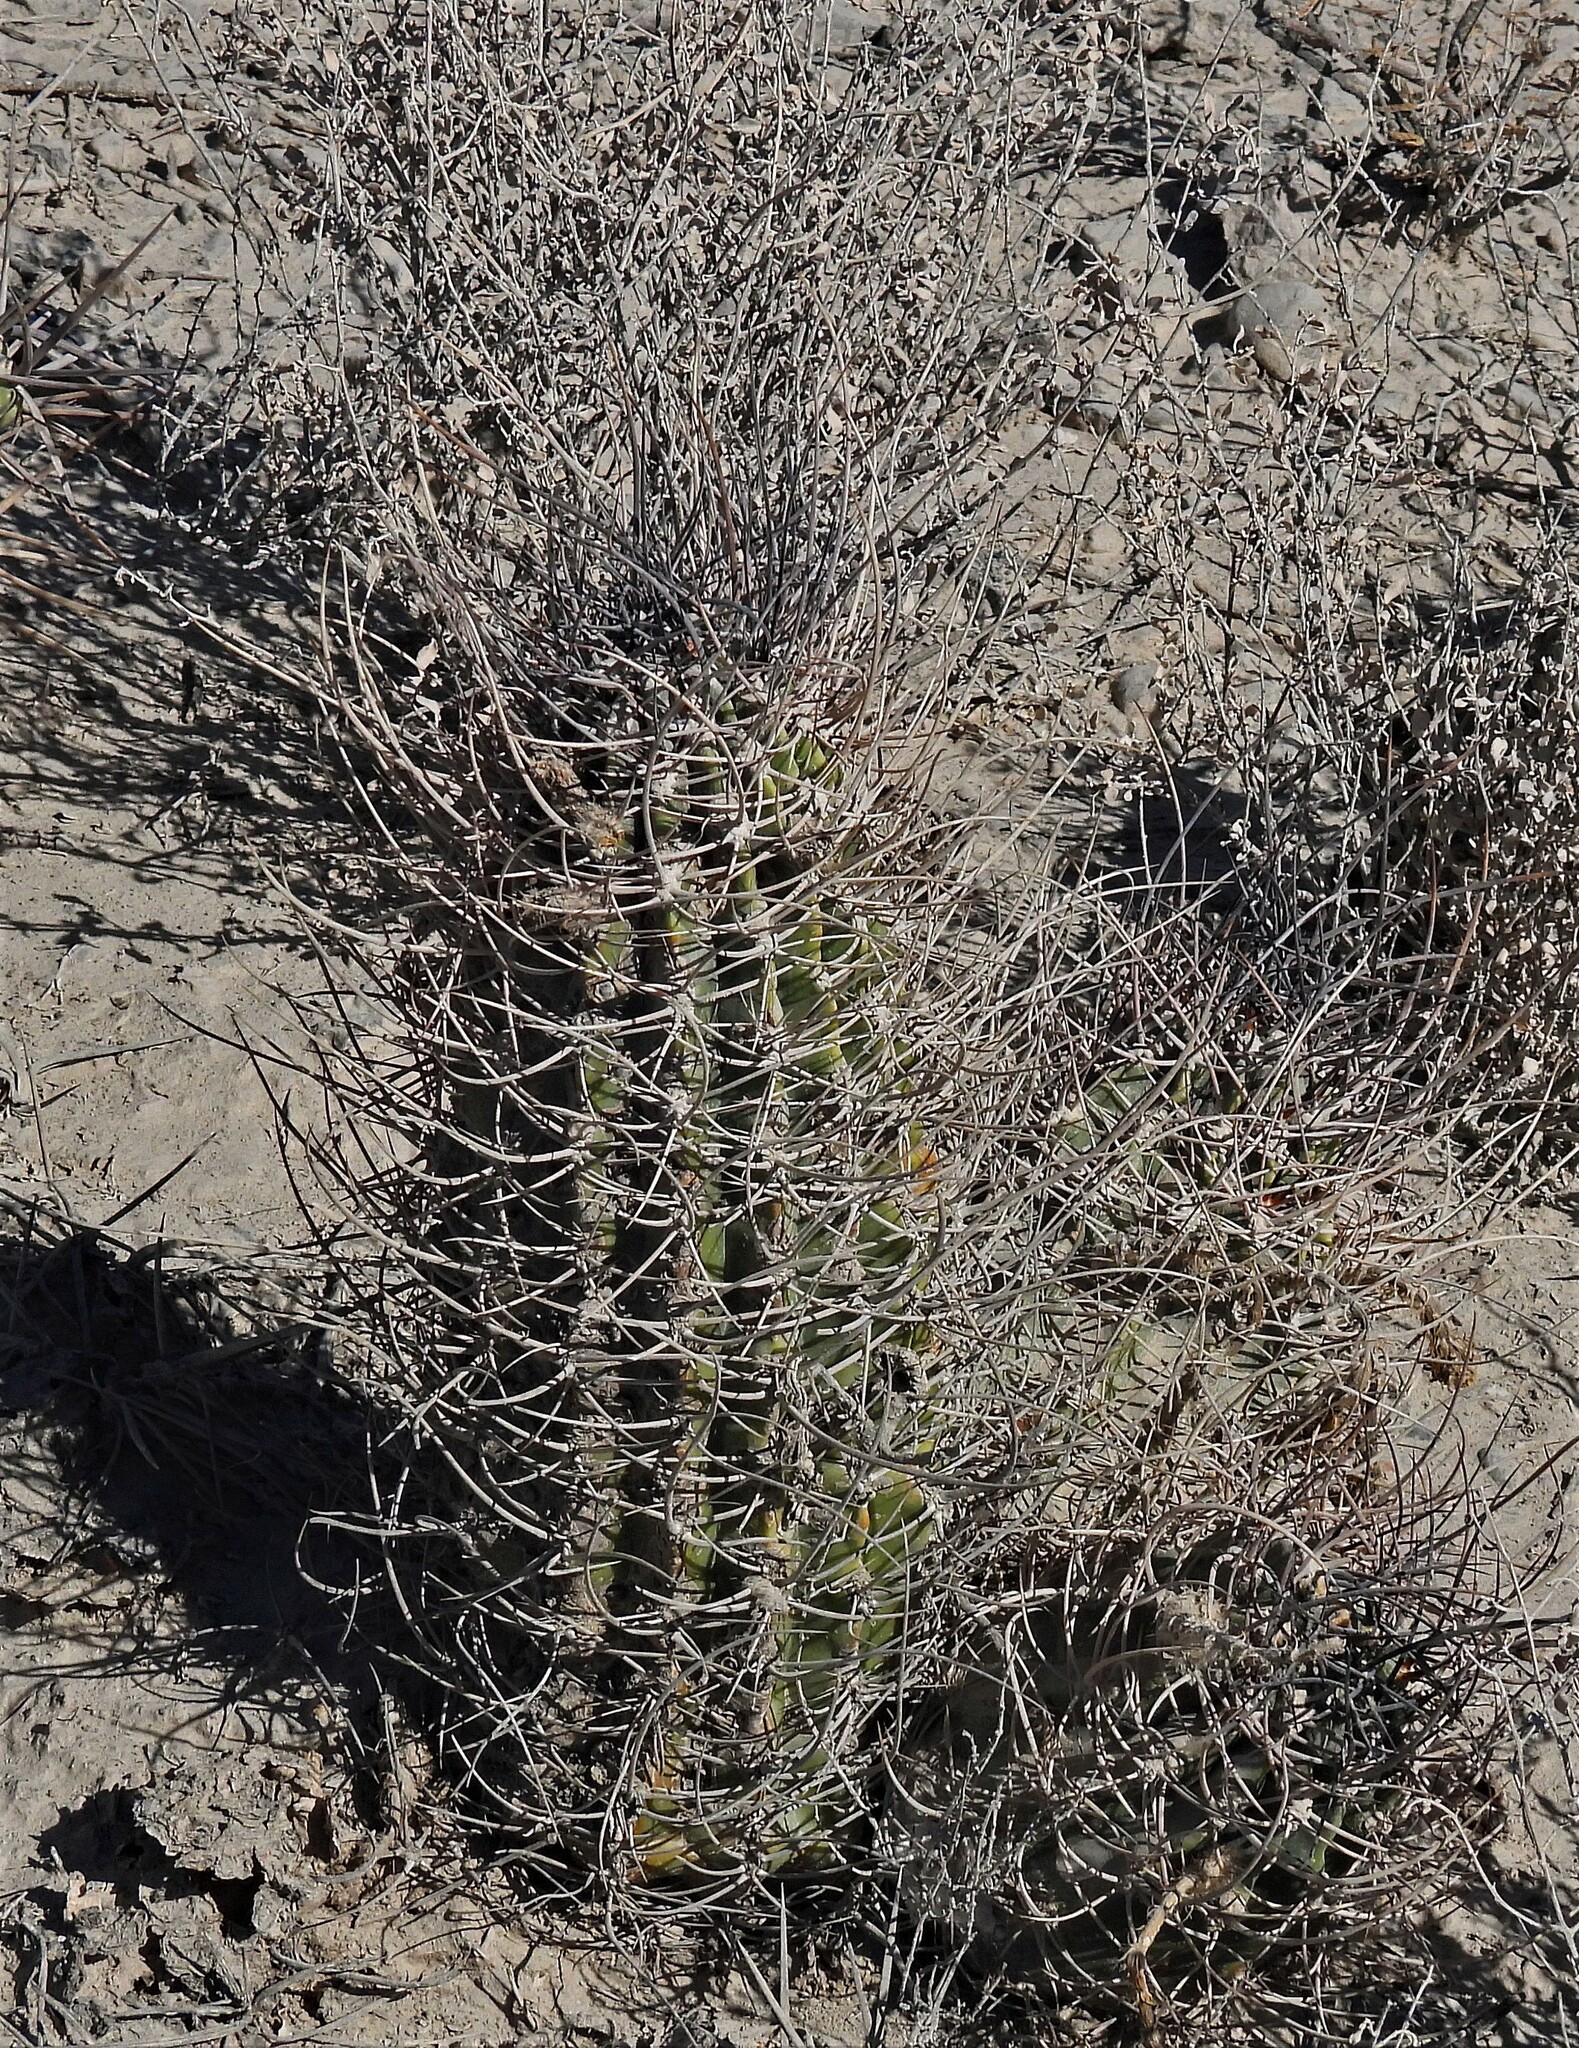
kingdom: Plantae
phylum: Tracheophyta
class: Magnoliopsida
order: Caryophyllales
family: Cactaceae
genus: Acanthocalycium
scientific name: Acanthocalycium leucanthum
